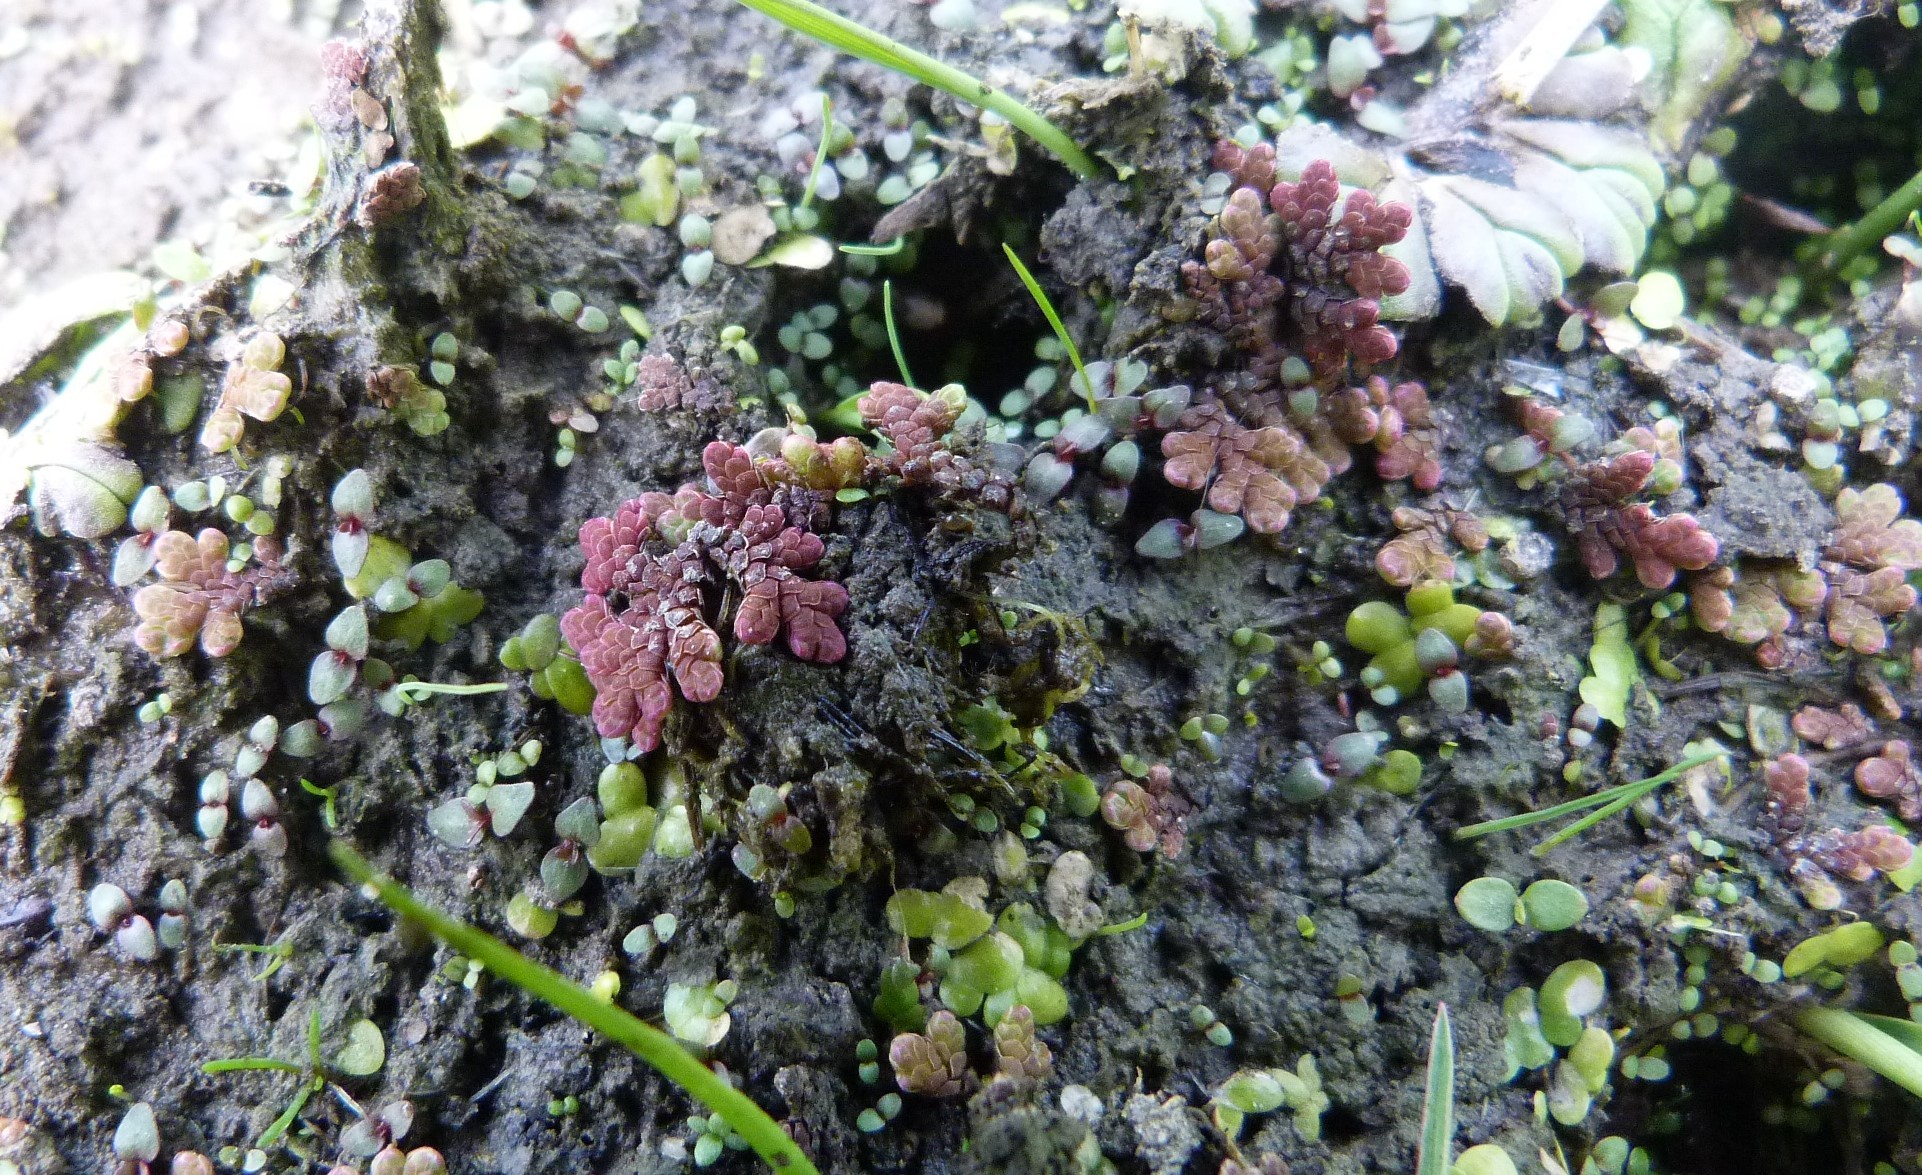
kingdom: Plantae
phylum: Tracheophyta
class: Polypodiopsida
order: Salviniales
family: Salviniaceae
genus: Azolla
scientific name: Azolla rubra
